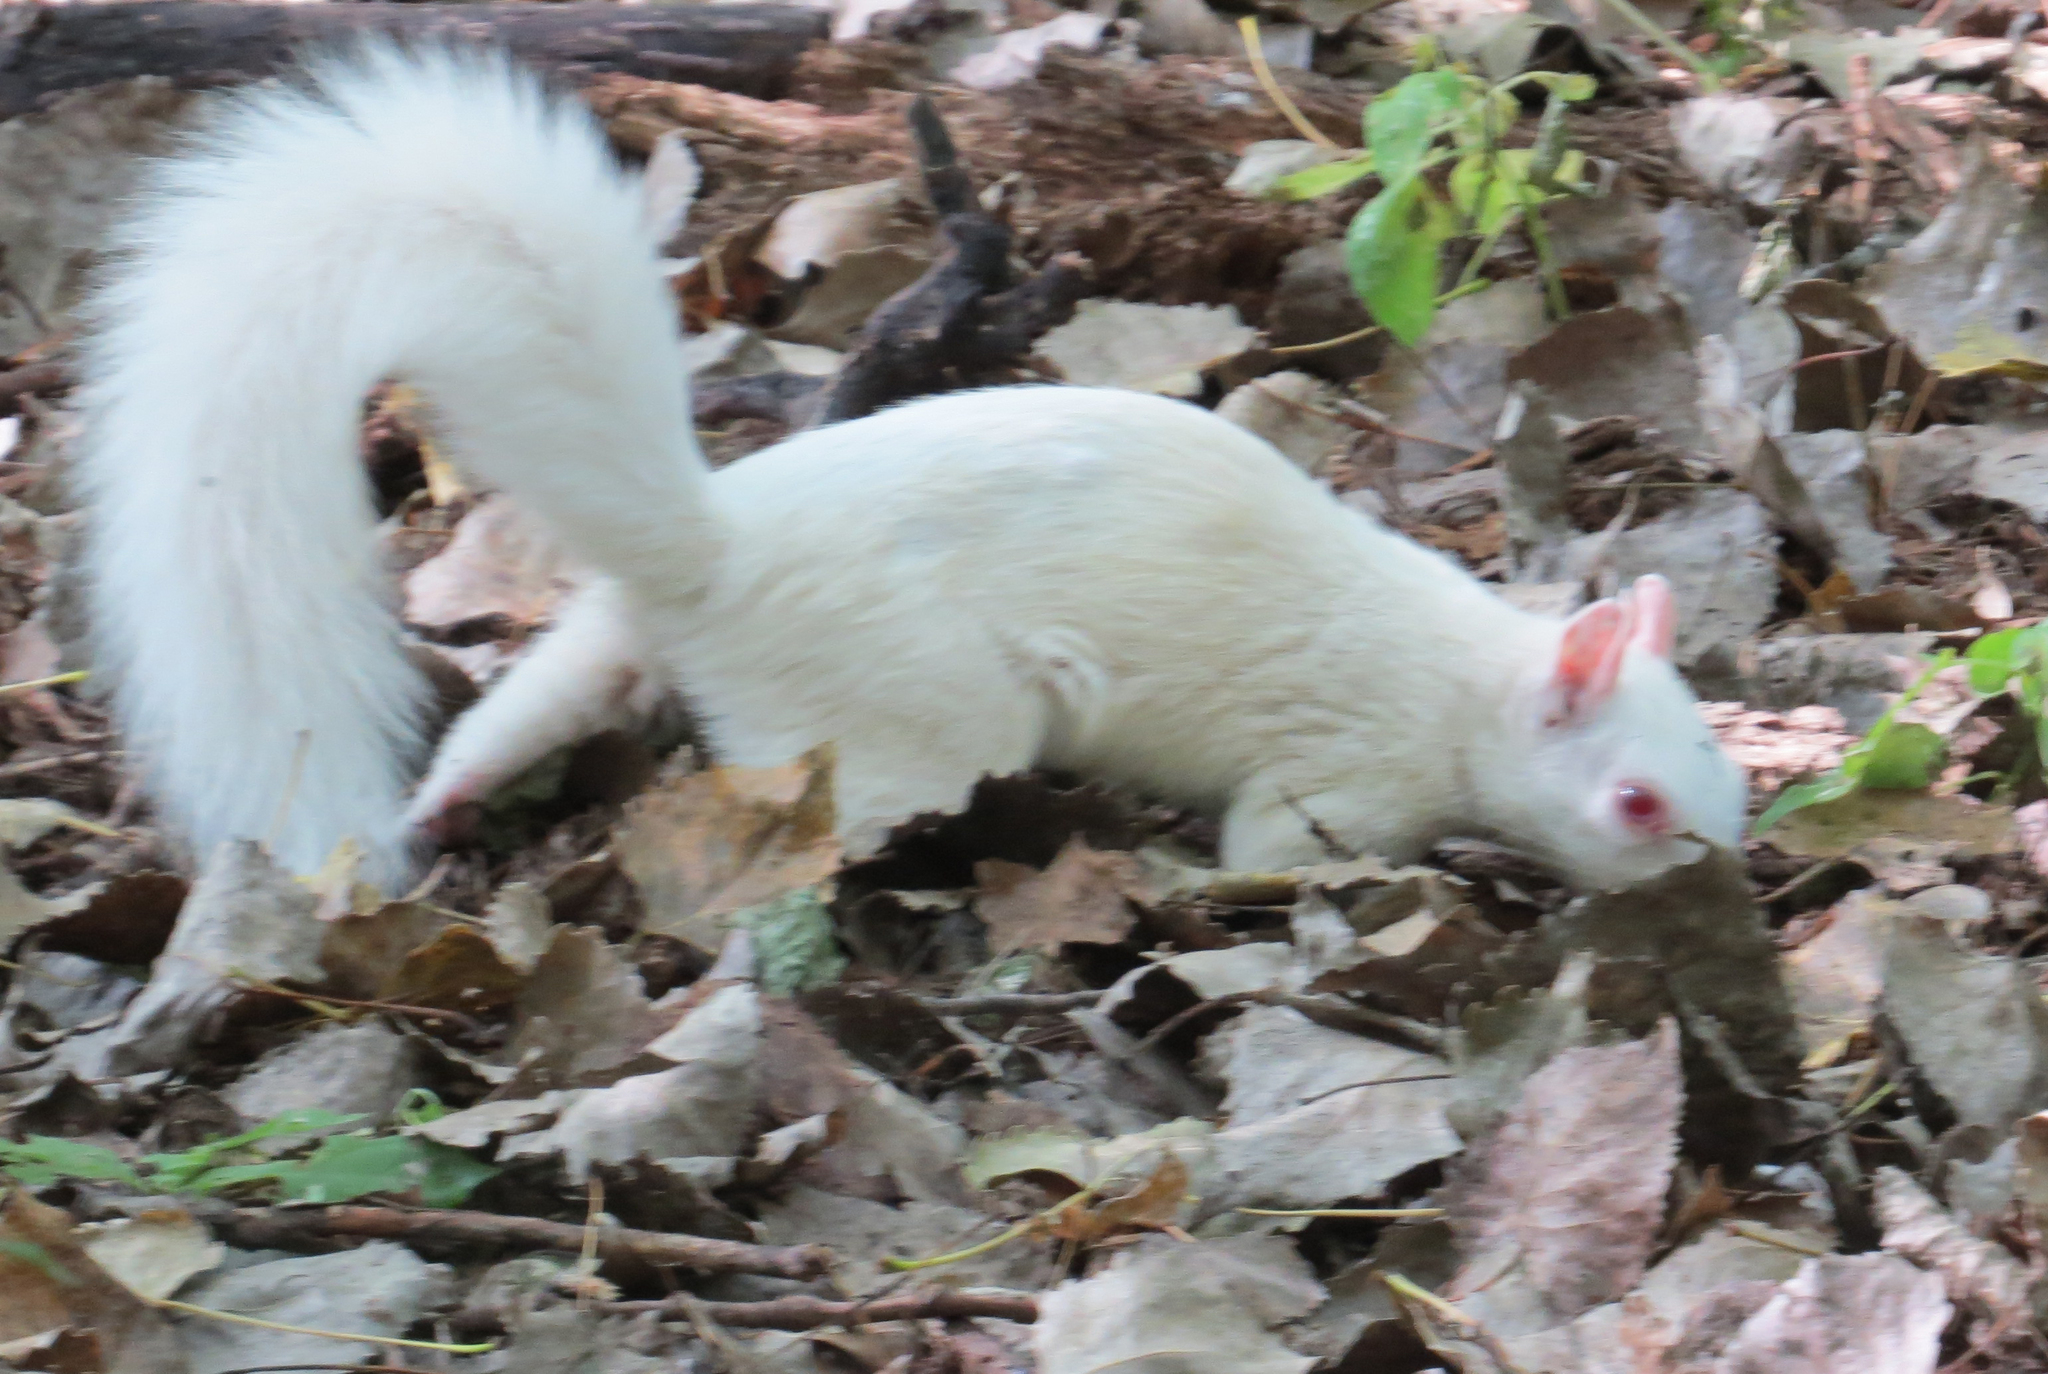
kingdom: Animalia
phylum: Chordata
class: Mammalia
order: Rodentia
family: Sciuridae
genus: Sciurus
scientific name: Sciurus carolinensis
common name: Eastern gray squirrel
